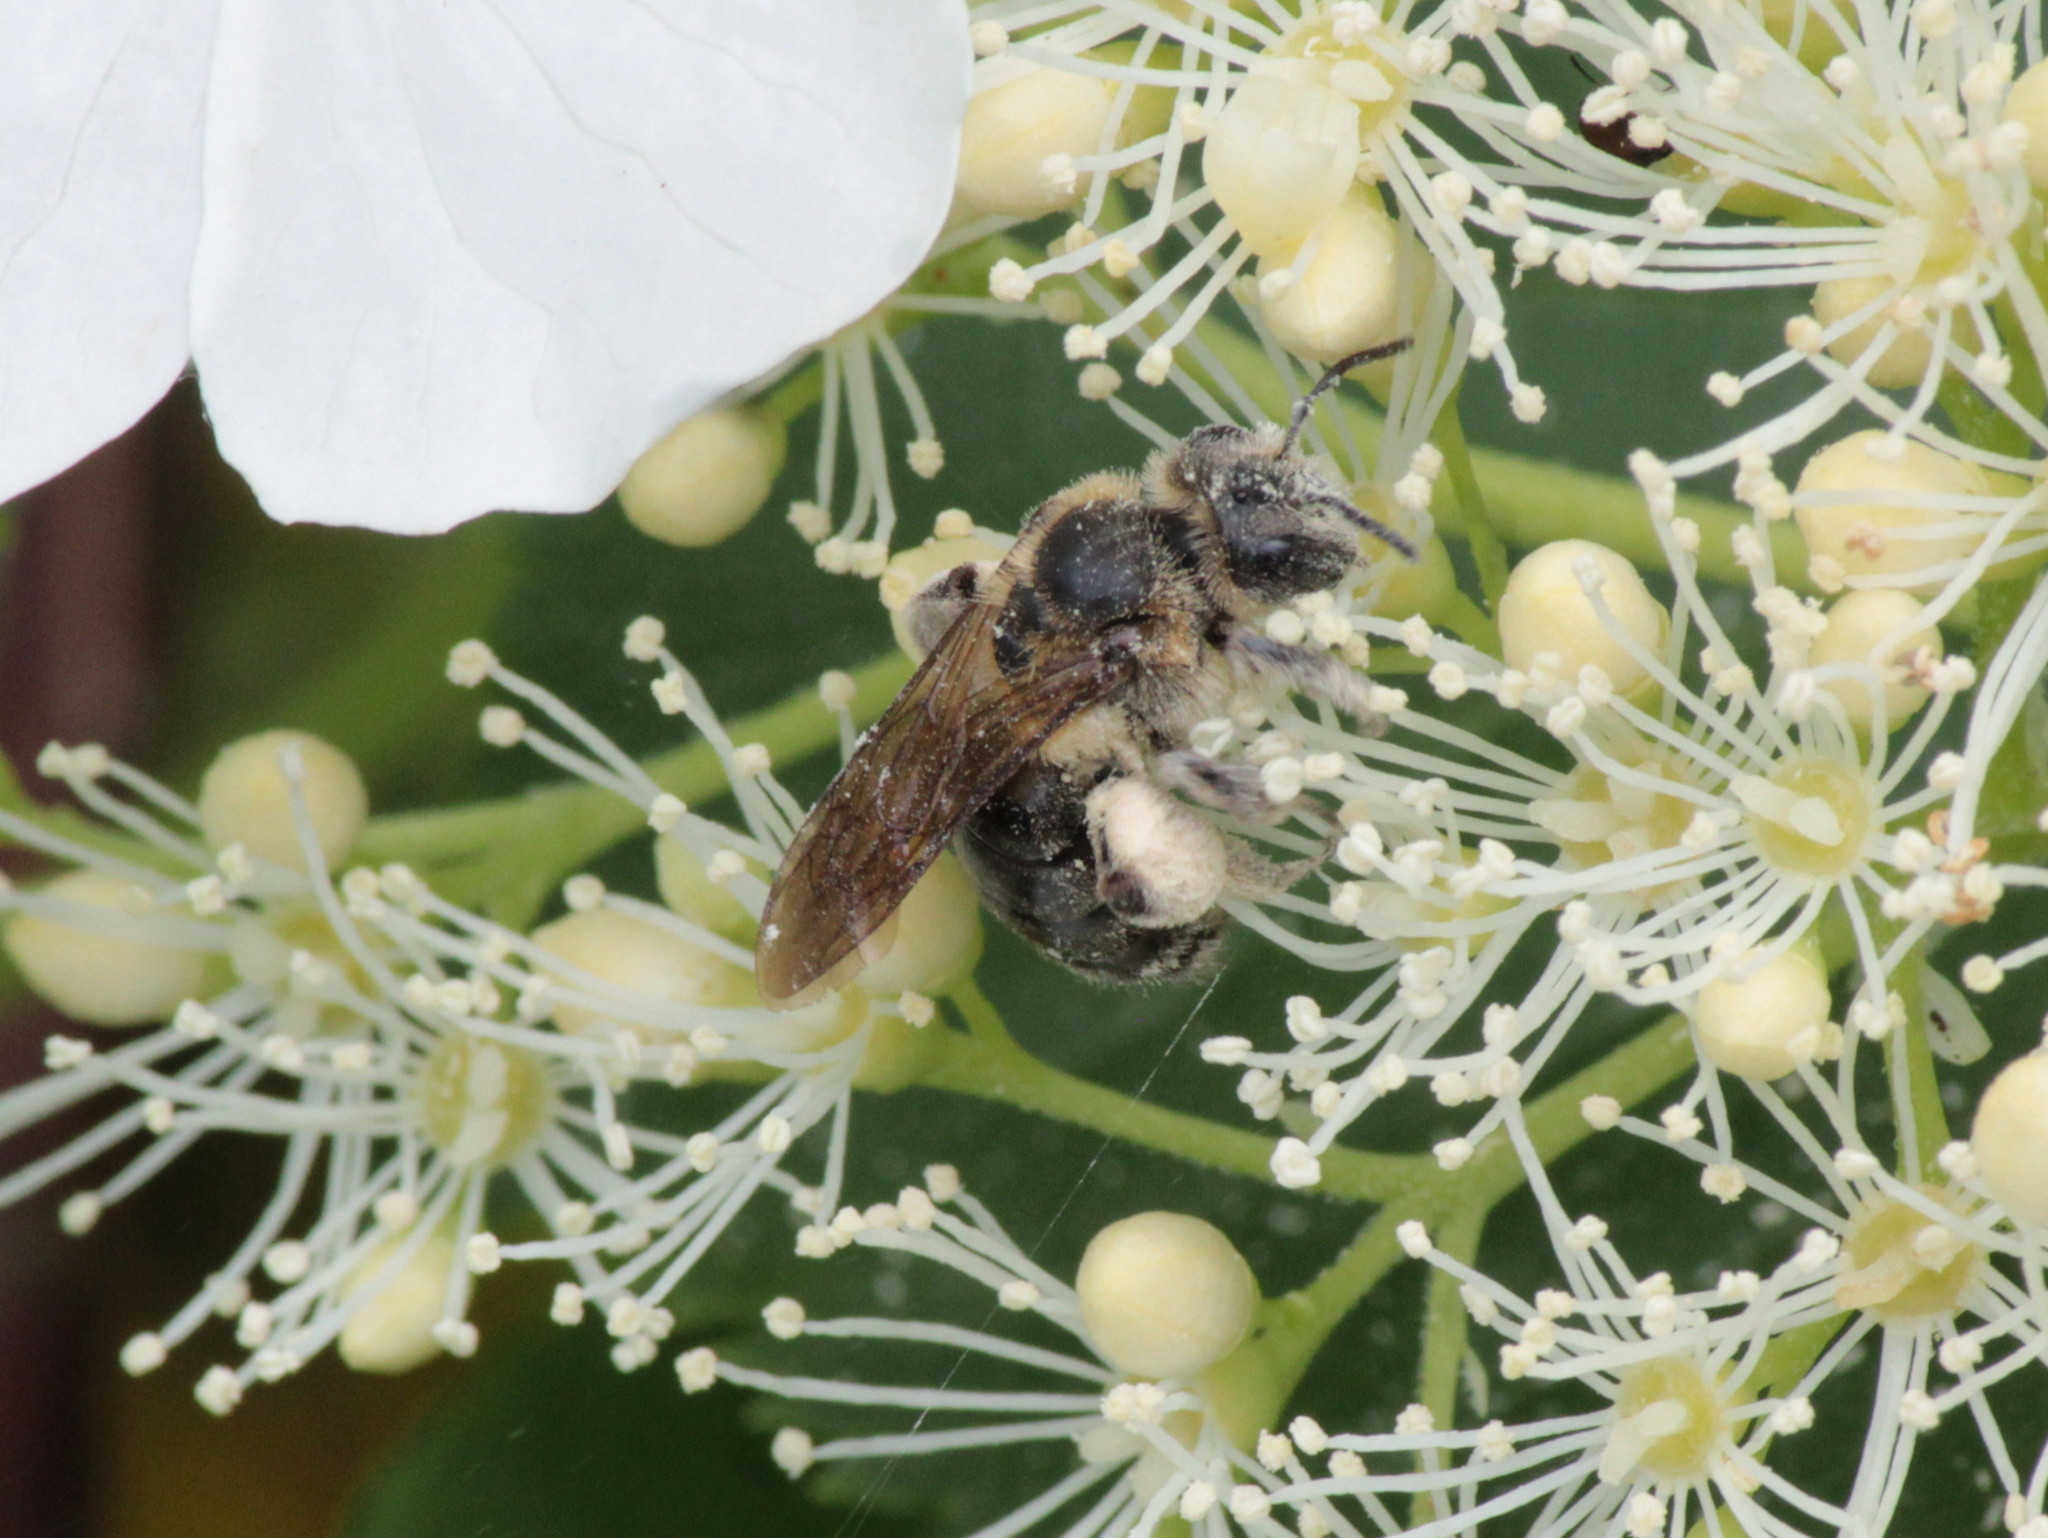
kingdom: Animalia
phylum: Arthropoda
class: Insecta
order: Hymenoptera
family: Andrenidae
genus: Andrena
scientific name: Andrena crataegi
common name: Hawthorn mining bee
